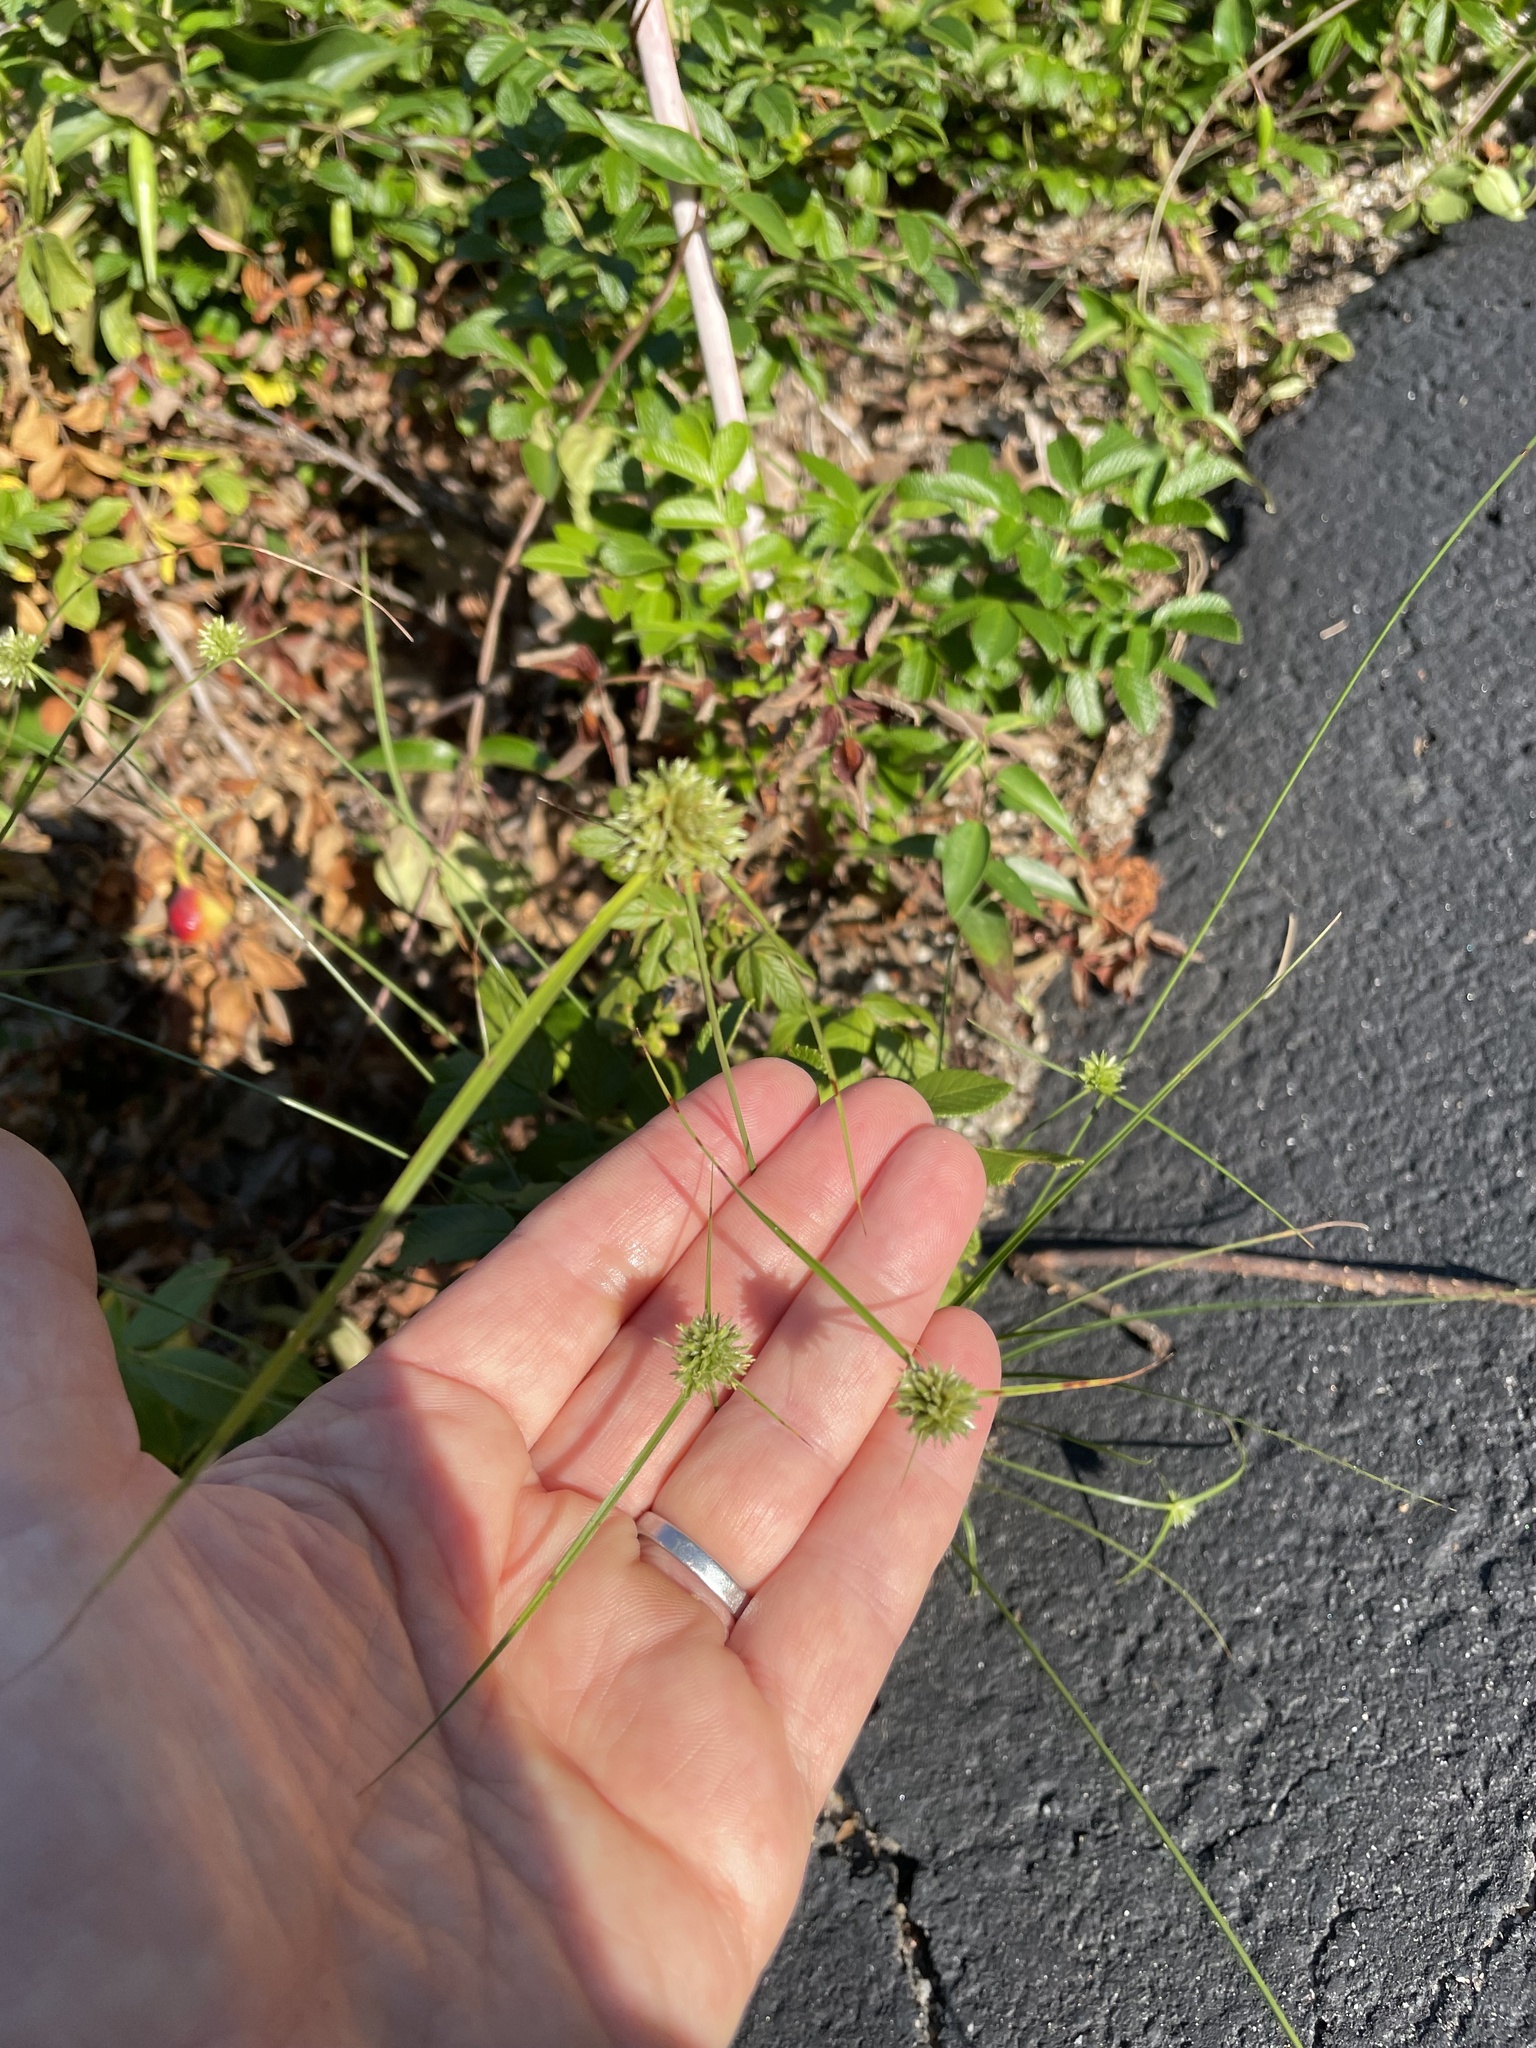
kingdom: Plantae
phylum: Tracheophyta
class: Liliopsida
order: Poales
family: Cyperaceae
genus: Cyperus
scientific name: Cyperus lupulinus
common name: Great plains flatsedge
